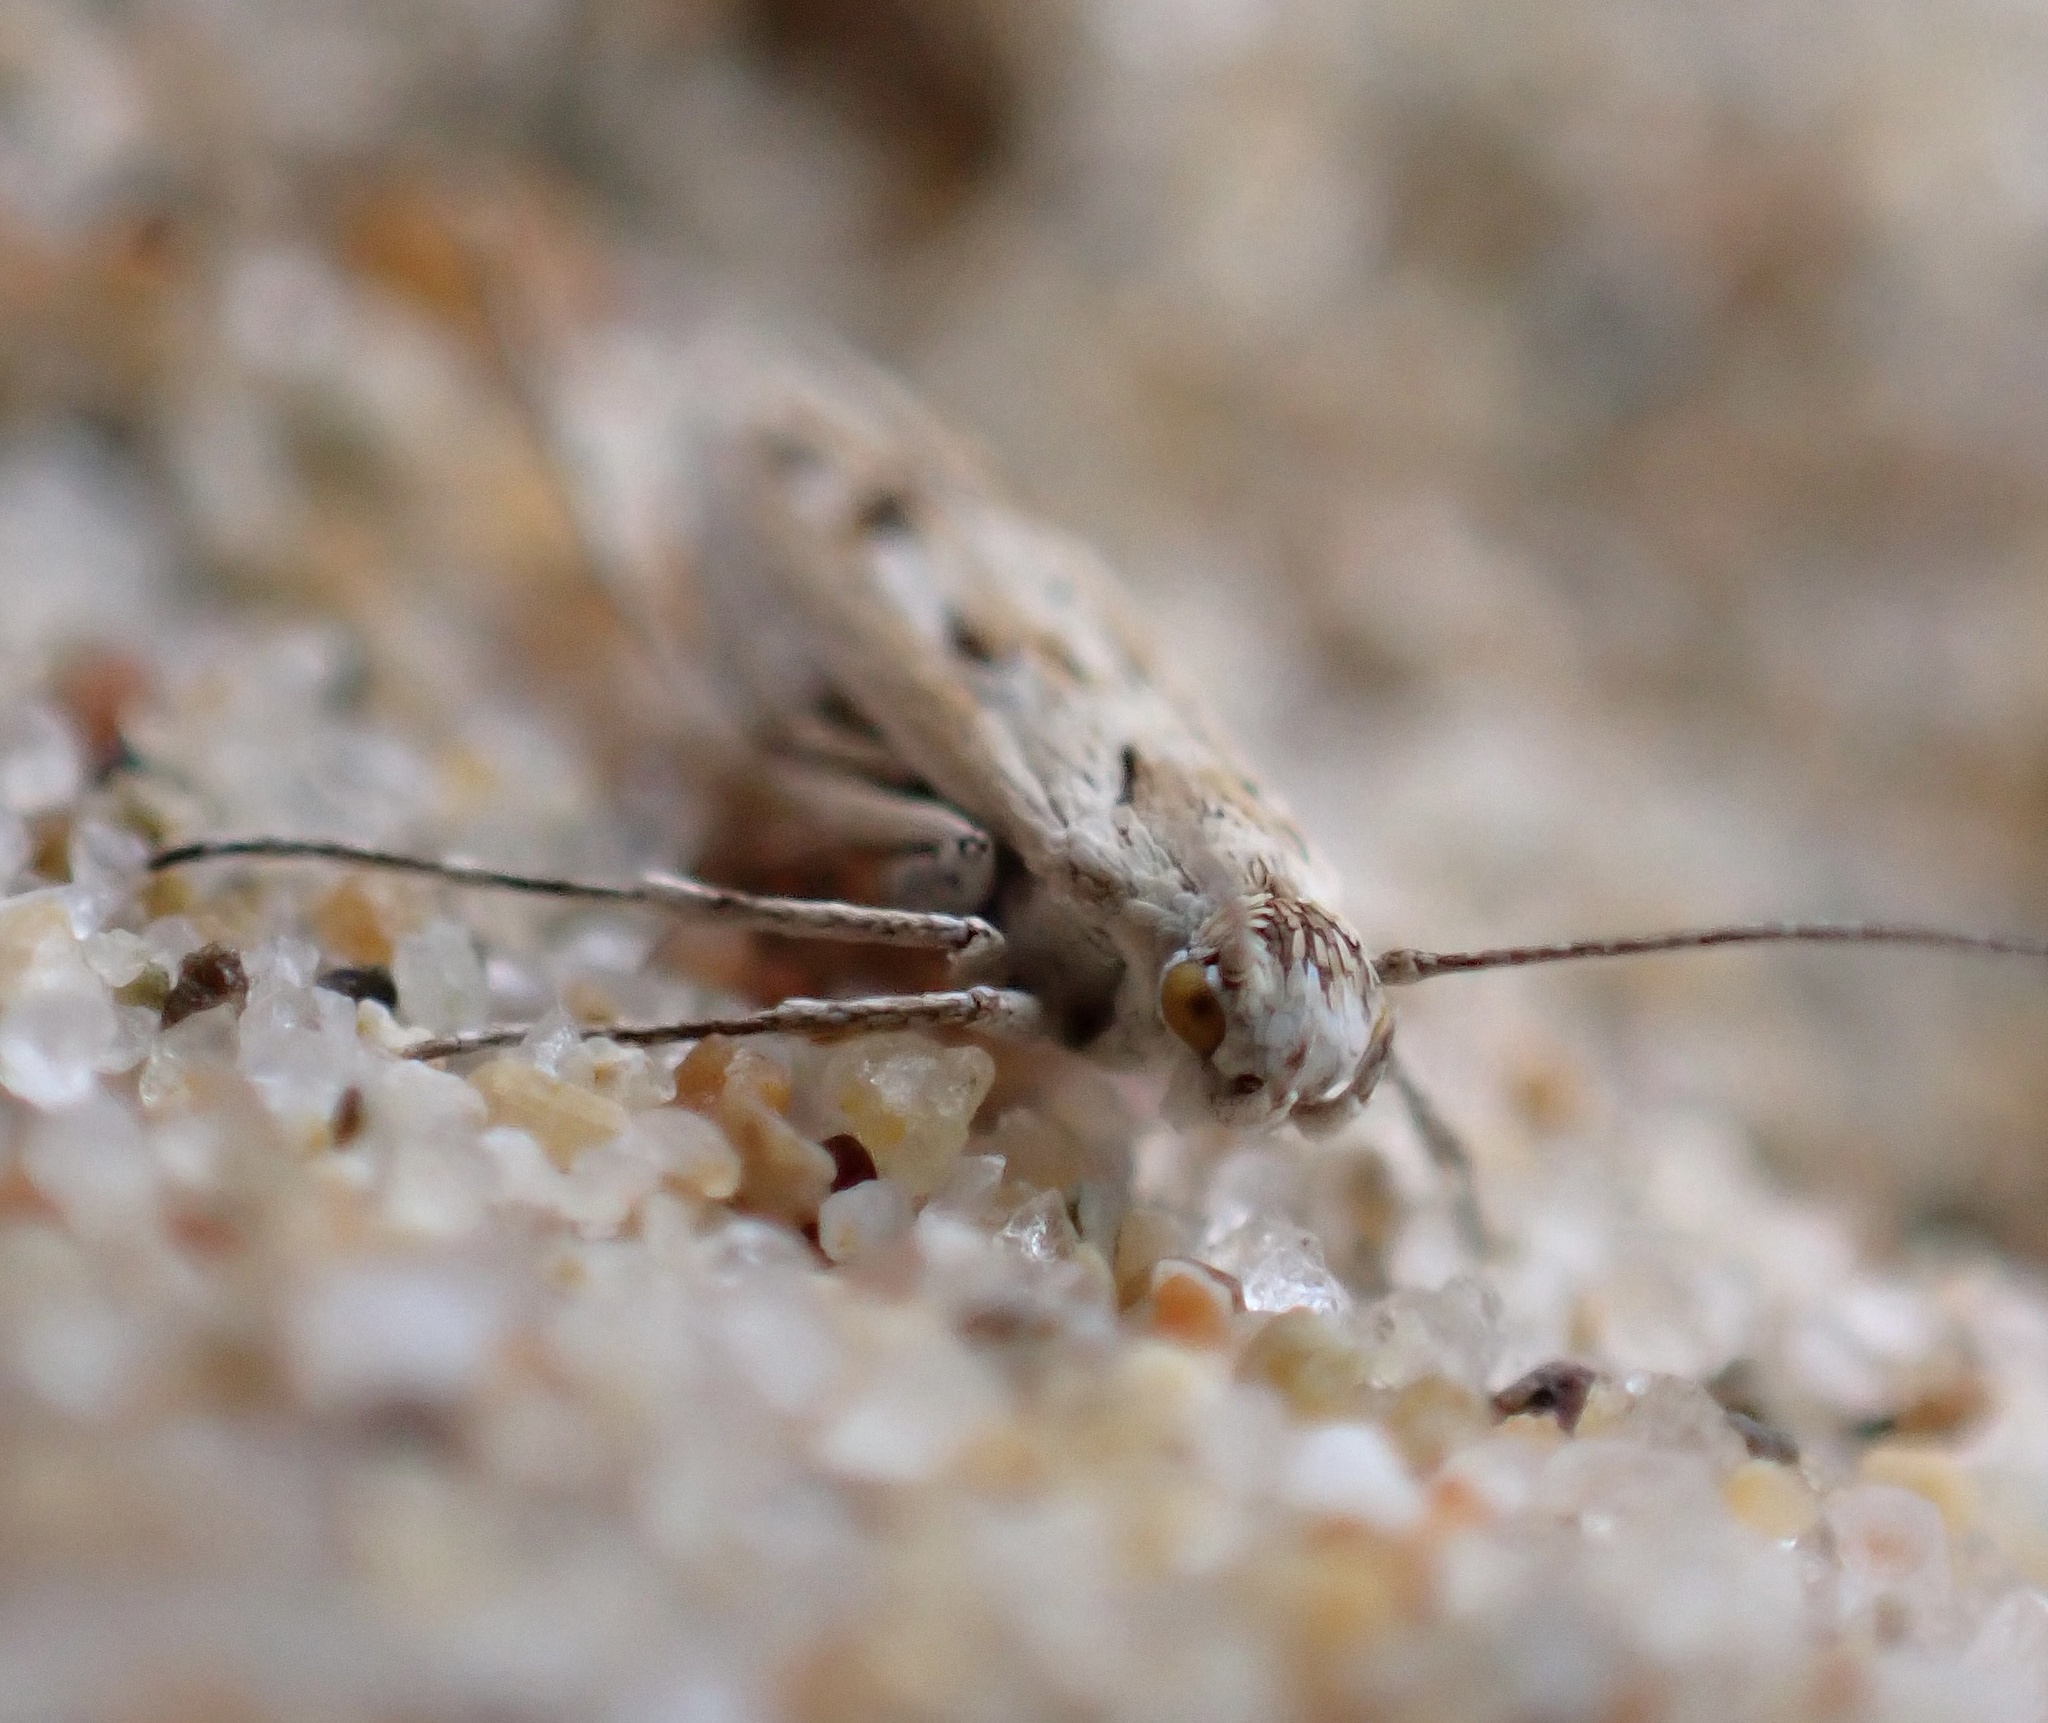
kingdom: Animalia
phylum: Arthropoda
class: Insecta
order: Lepidoptera
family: Scythrididae
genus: Areniscythris
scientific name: Areniscythris brachypteris
